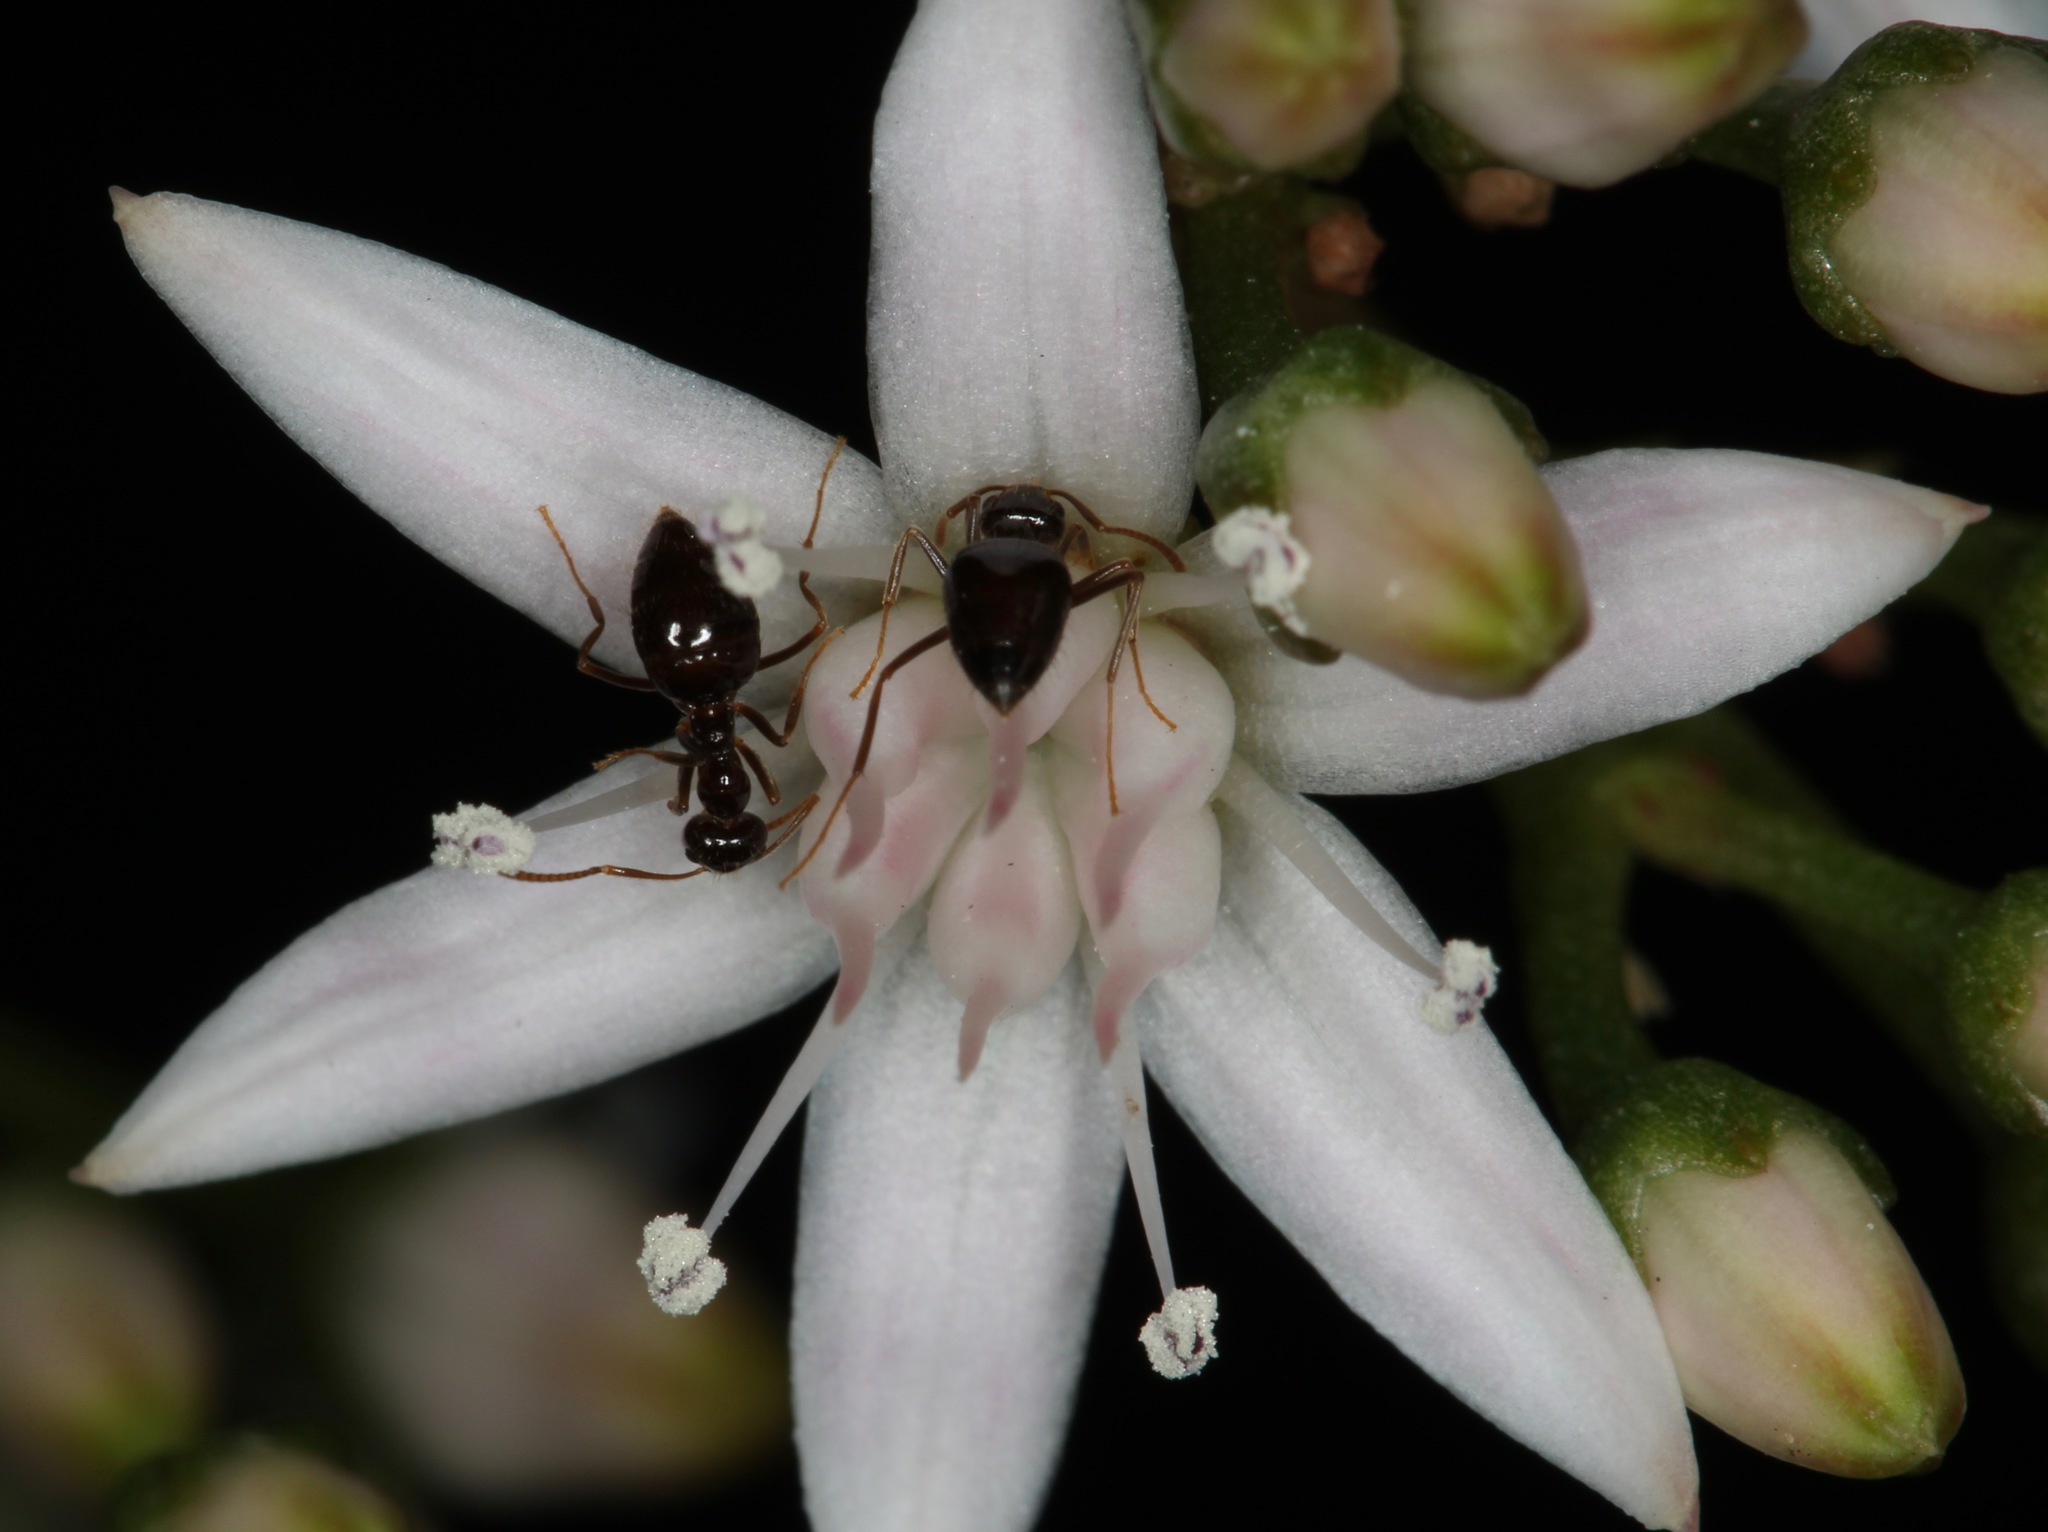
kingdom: Animalia
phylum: Arthropoda
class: Insecta
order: Hymenoptera
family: Formicidae
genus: Prenolepis
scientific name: Prenolepis imparis
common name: Small honey ant
